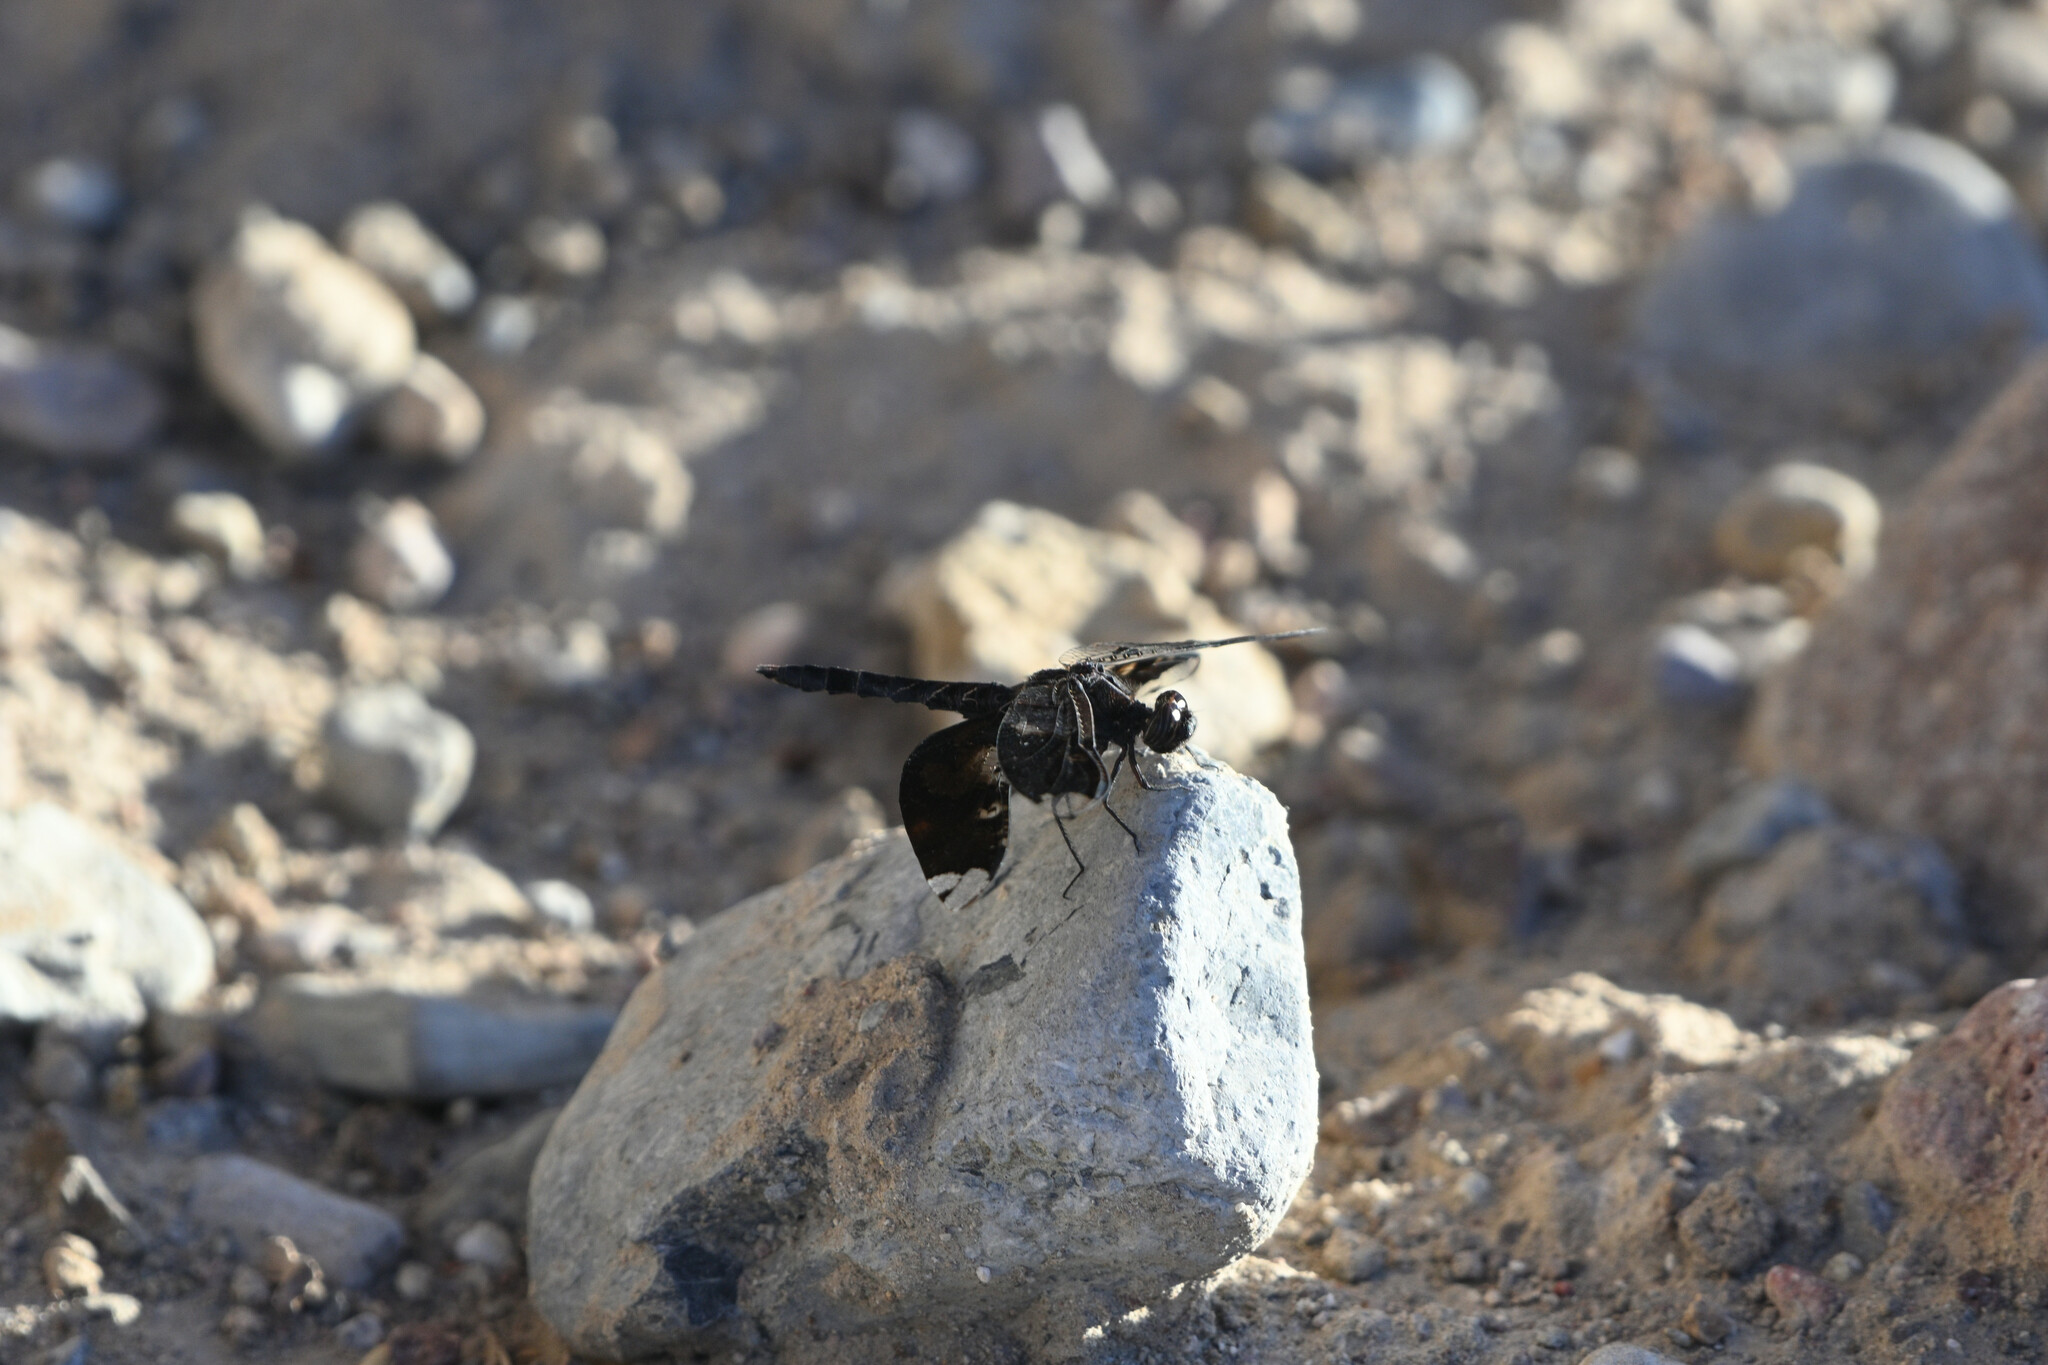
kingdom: Animalia
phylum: Arthropoda
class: Insecta
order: Odonata
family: Libellulidae
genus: Pseudoleon
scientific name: Pseudoleon superbus
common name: Filigree skimmer
